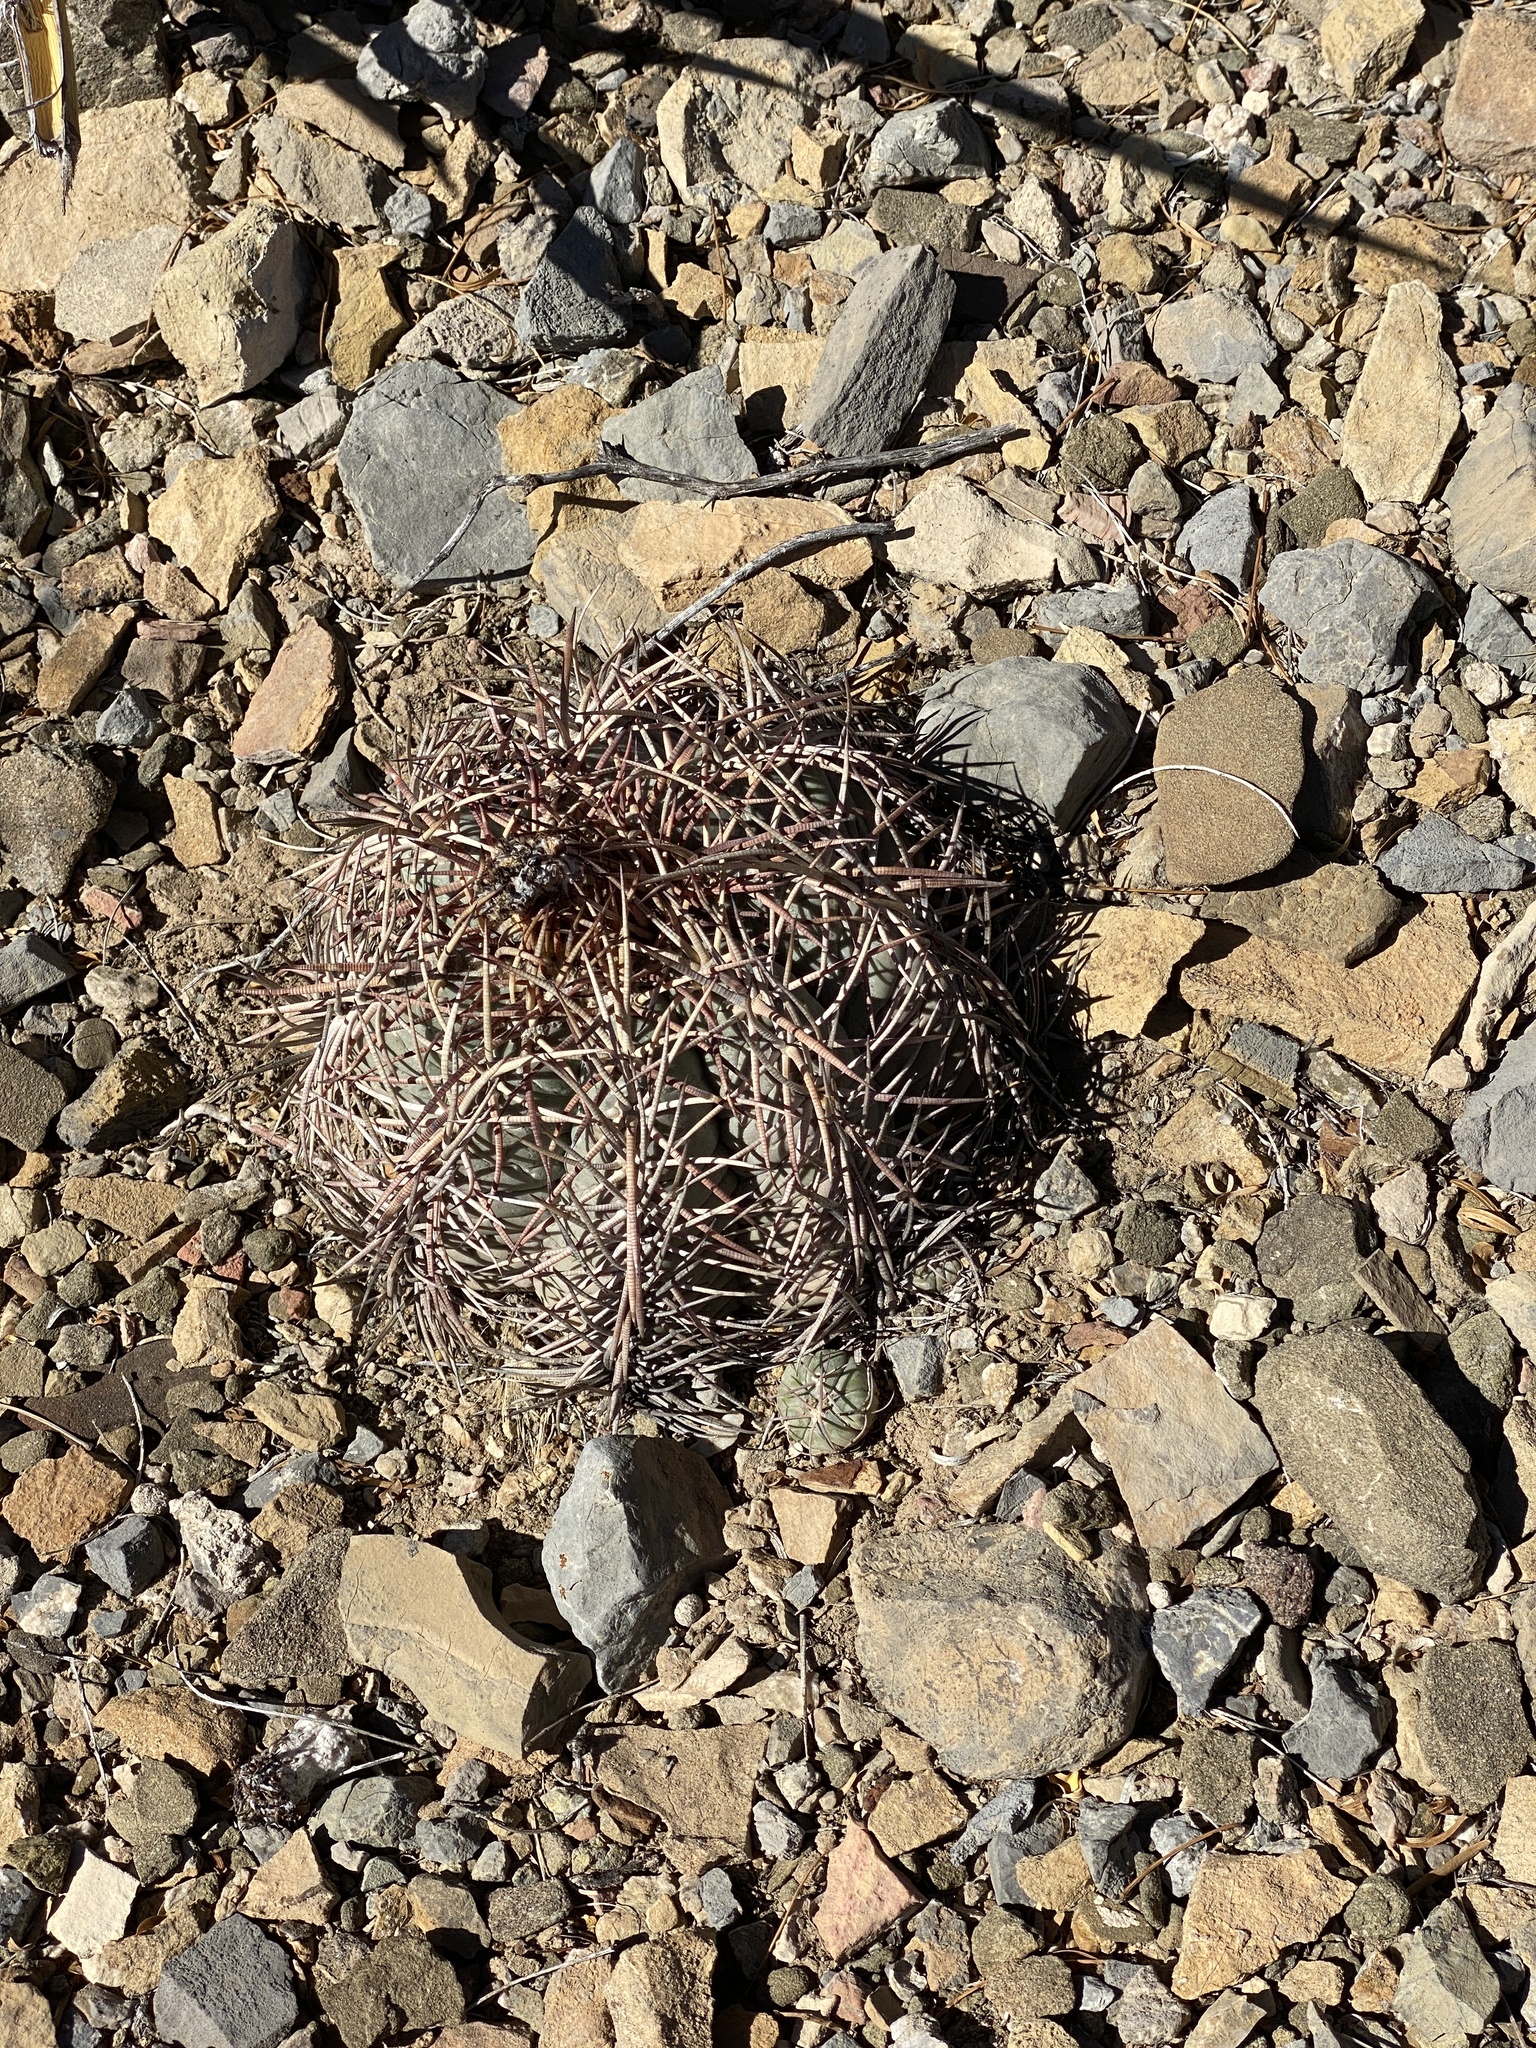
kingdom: Plantae
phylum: Tracheophyta
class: Magnoliopsida
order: Caryophyllales
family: Cactaceae
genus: Echinocactus
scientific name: Echinocactus horizonthalonius
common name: Devilshead
